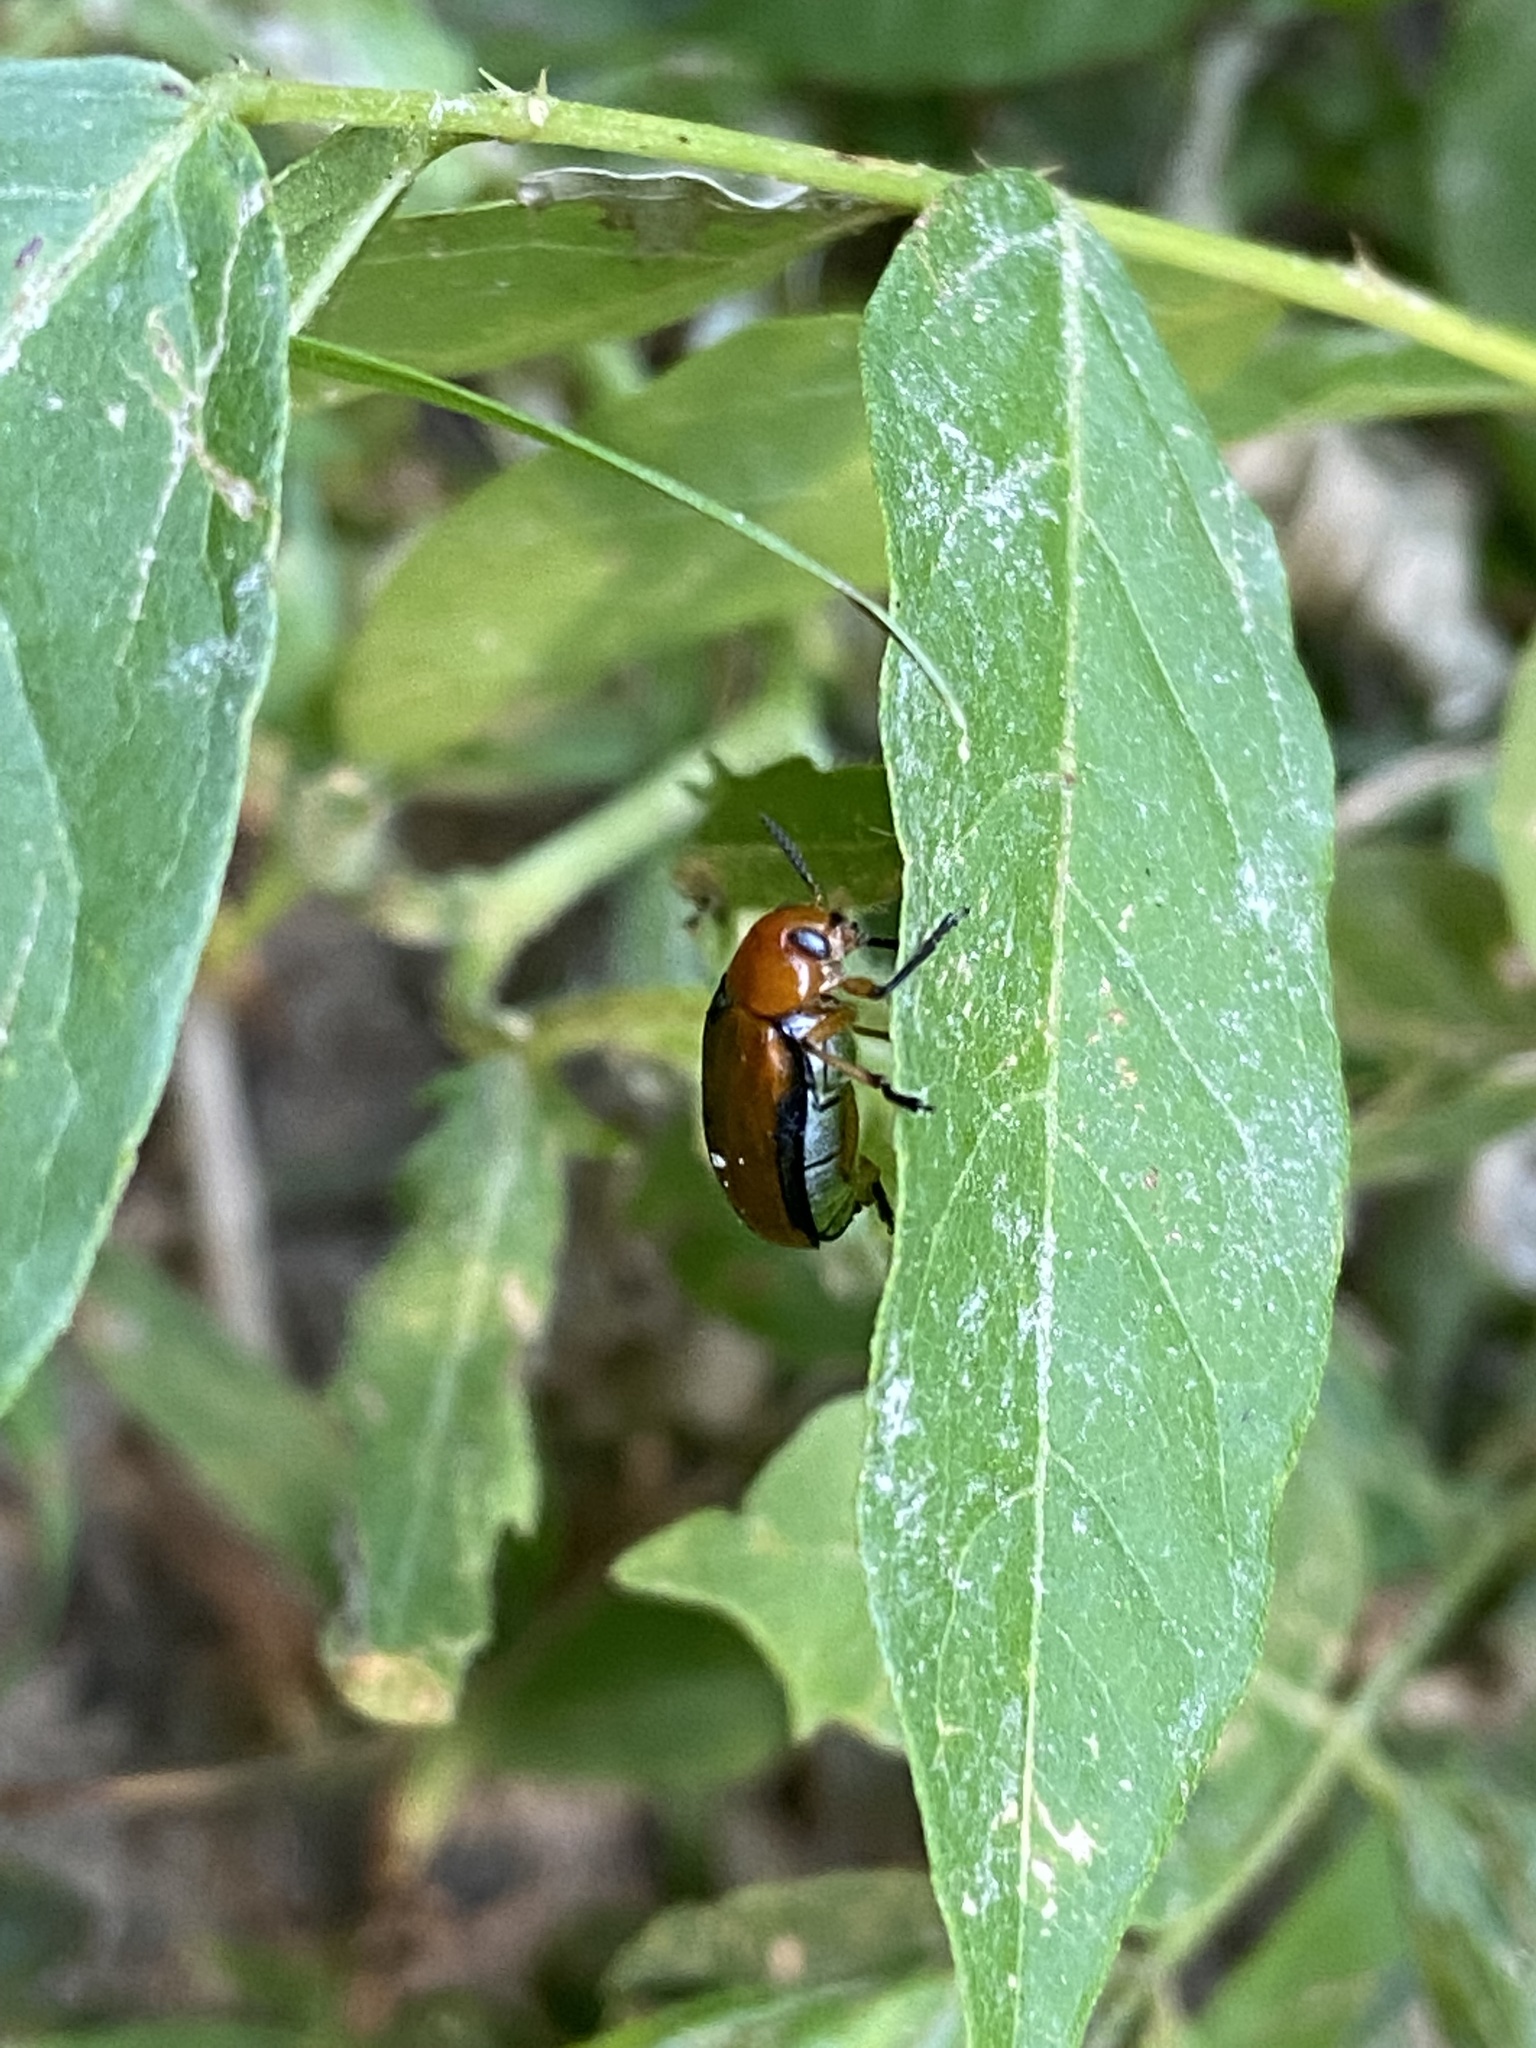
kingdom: Animalia
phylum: Arthropoda
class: Insecta
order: Coleoptera
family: Chrysomelidae
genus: Anomoea
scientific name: Anomoea laticlavia
